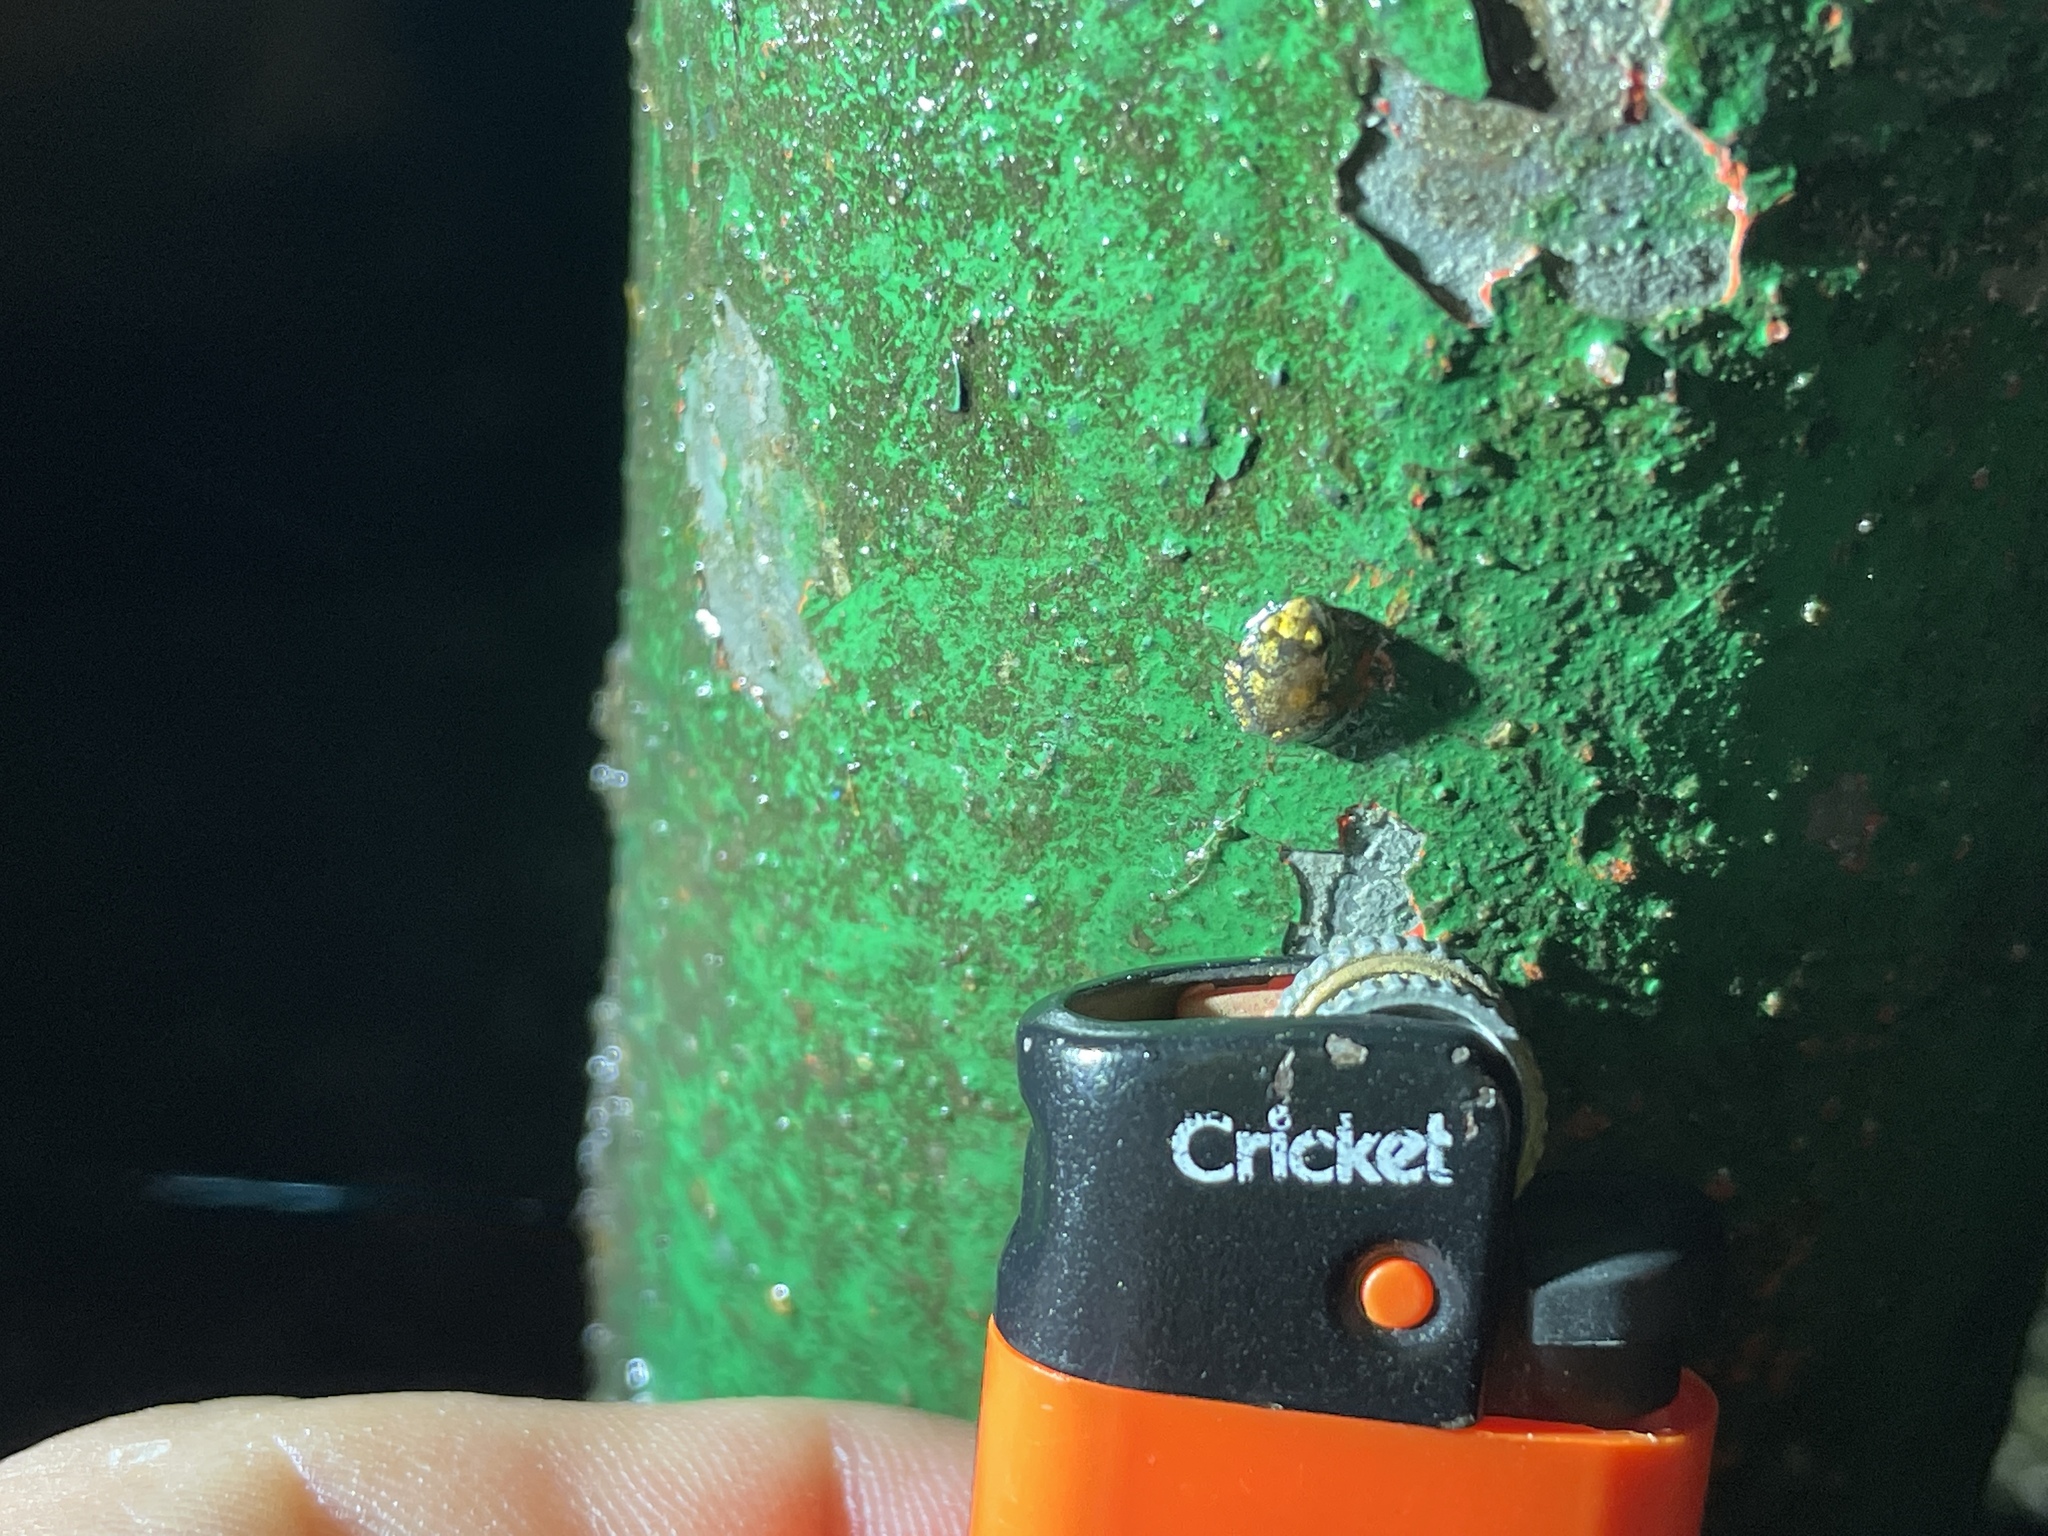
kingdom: Animalia
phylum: Chordata
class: Amphibia
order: Anura
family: Eleutherodactylidae
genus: Eleutherodactylus
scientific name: Eleutherodactylus planirostris
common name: Greenhouse frog
